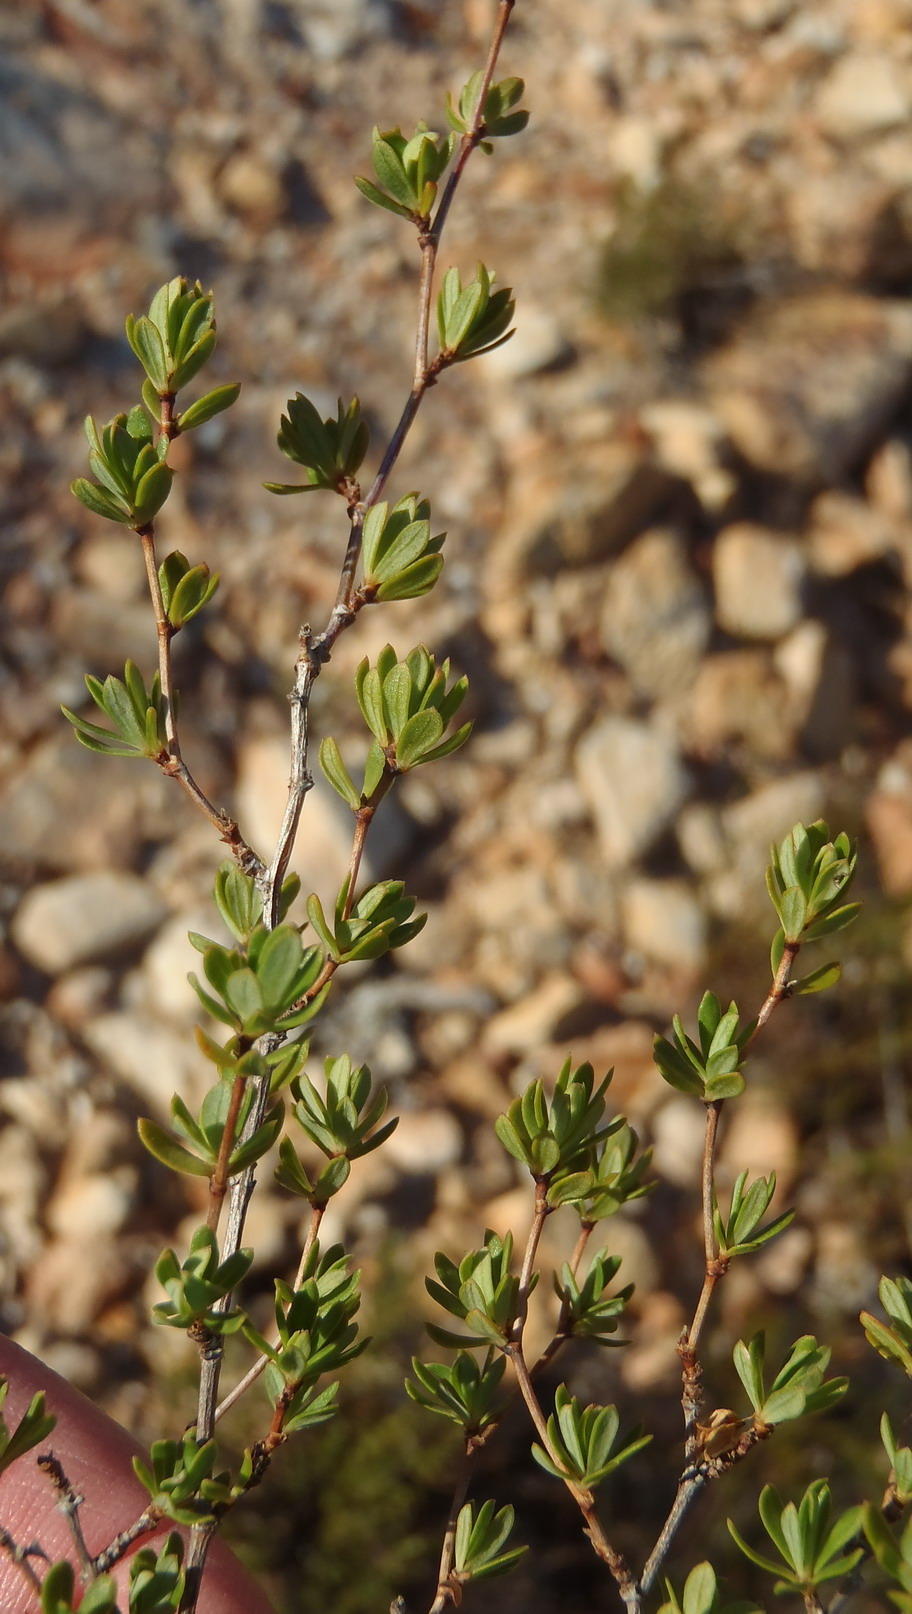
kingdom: Plantae
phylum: Tracheophyta
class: Magnoliopsida
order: Rosales
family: Rosaceae
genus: Cliffortia
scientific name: Cliffortia polita
